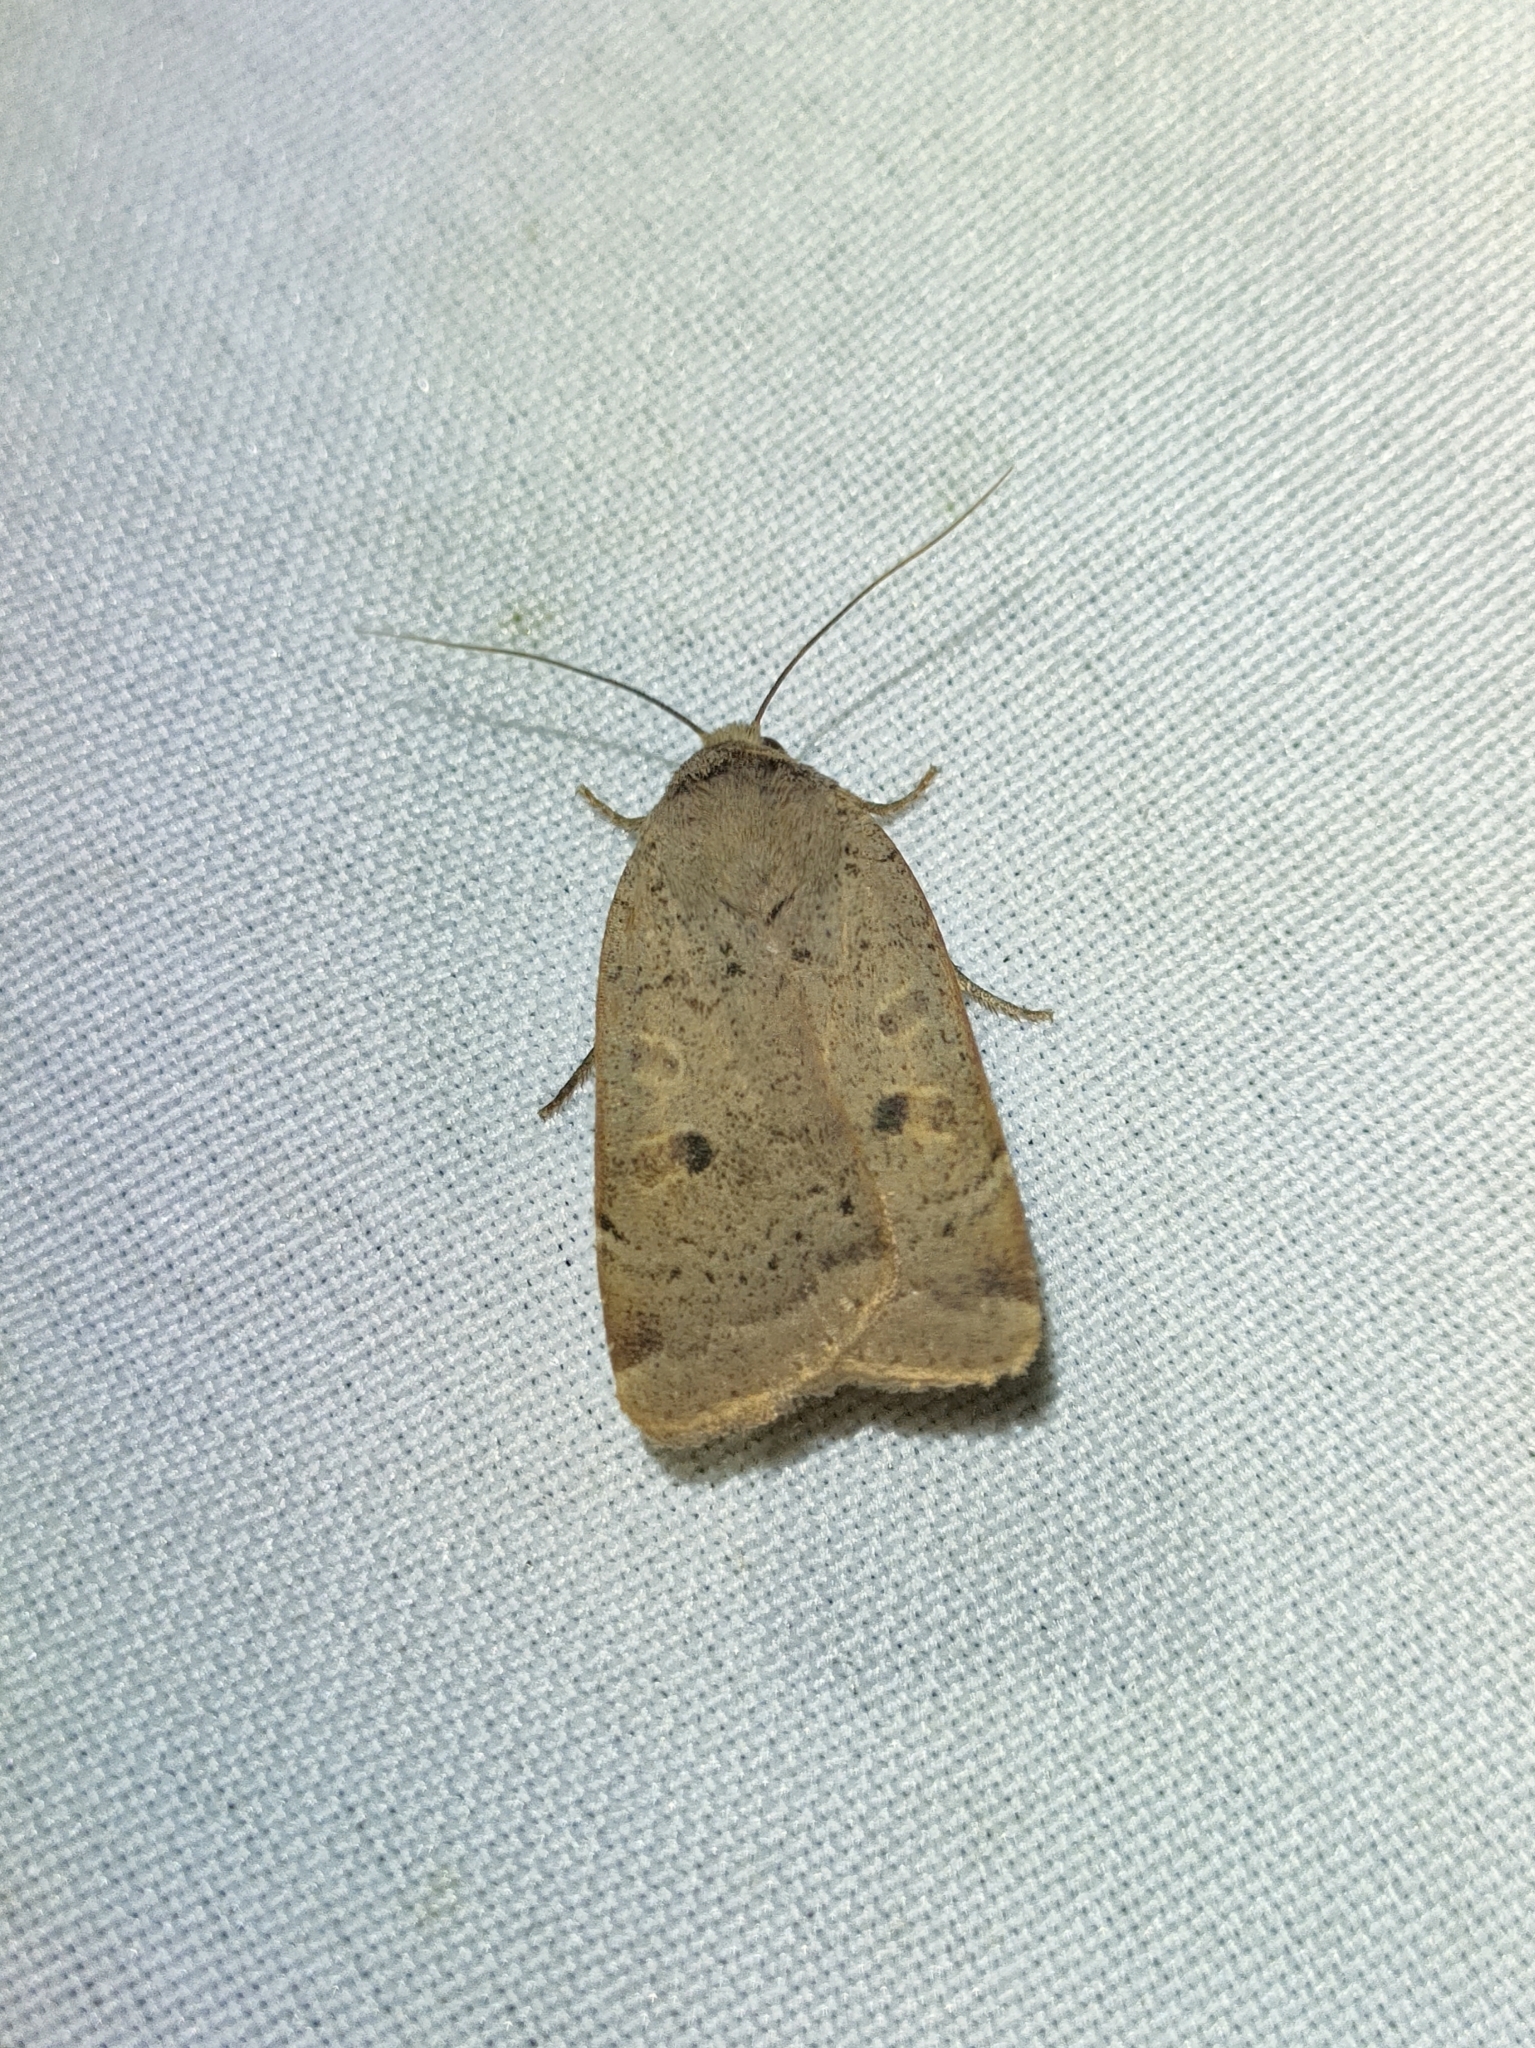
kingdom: Animalia
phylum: Arthropoda
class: Insecta
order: Lepidoptera
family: Noctuidae
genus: Noctua
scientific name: Noctua comes
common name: Lesser yellow underwing
